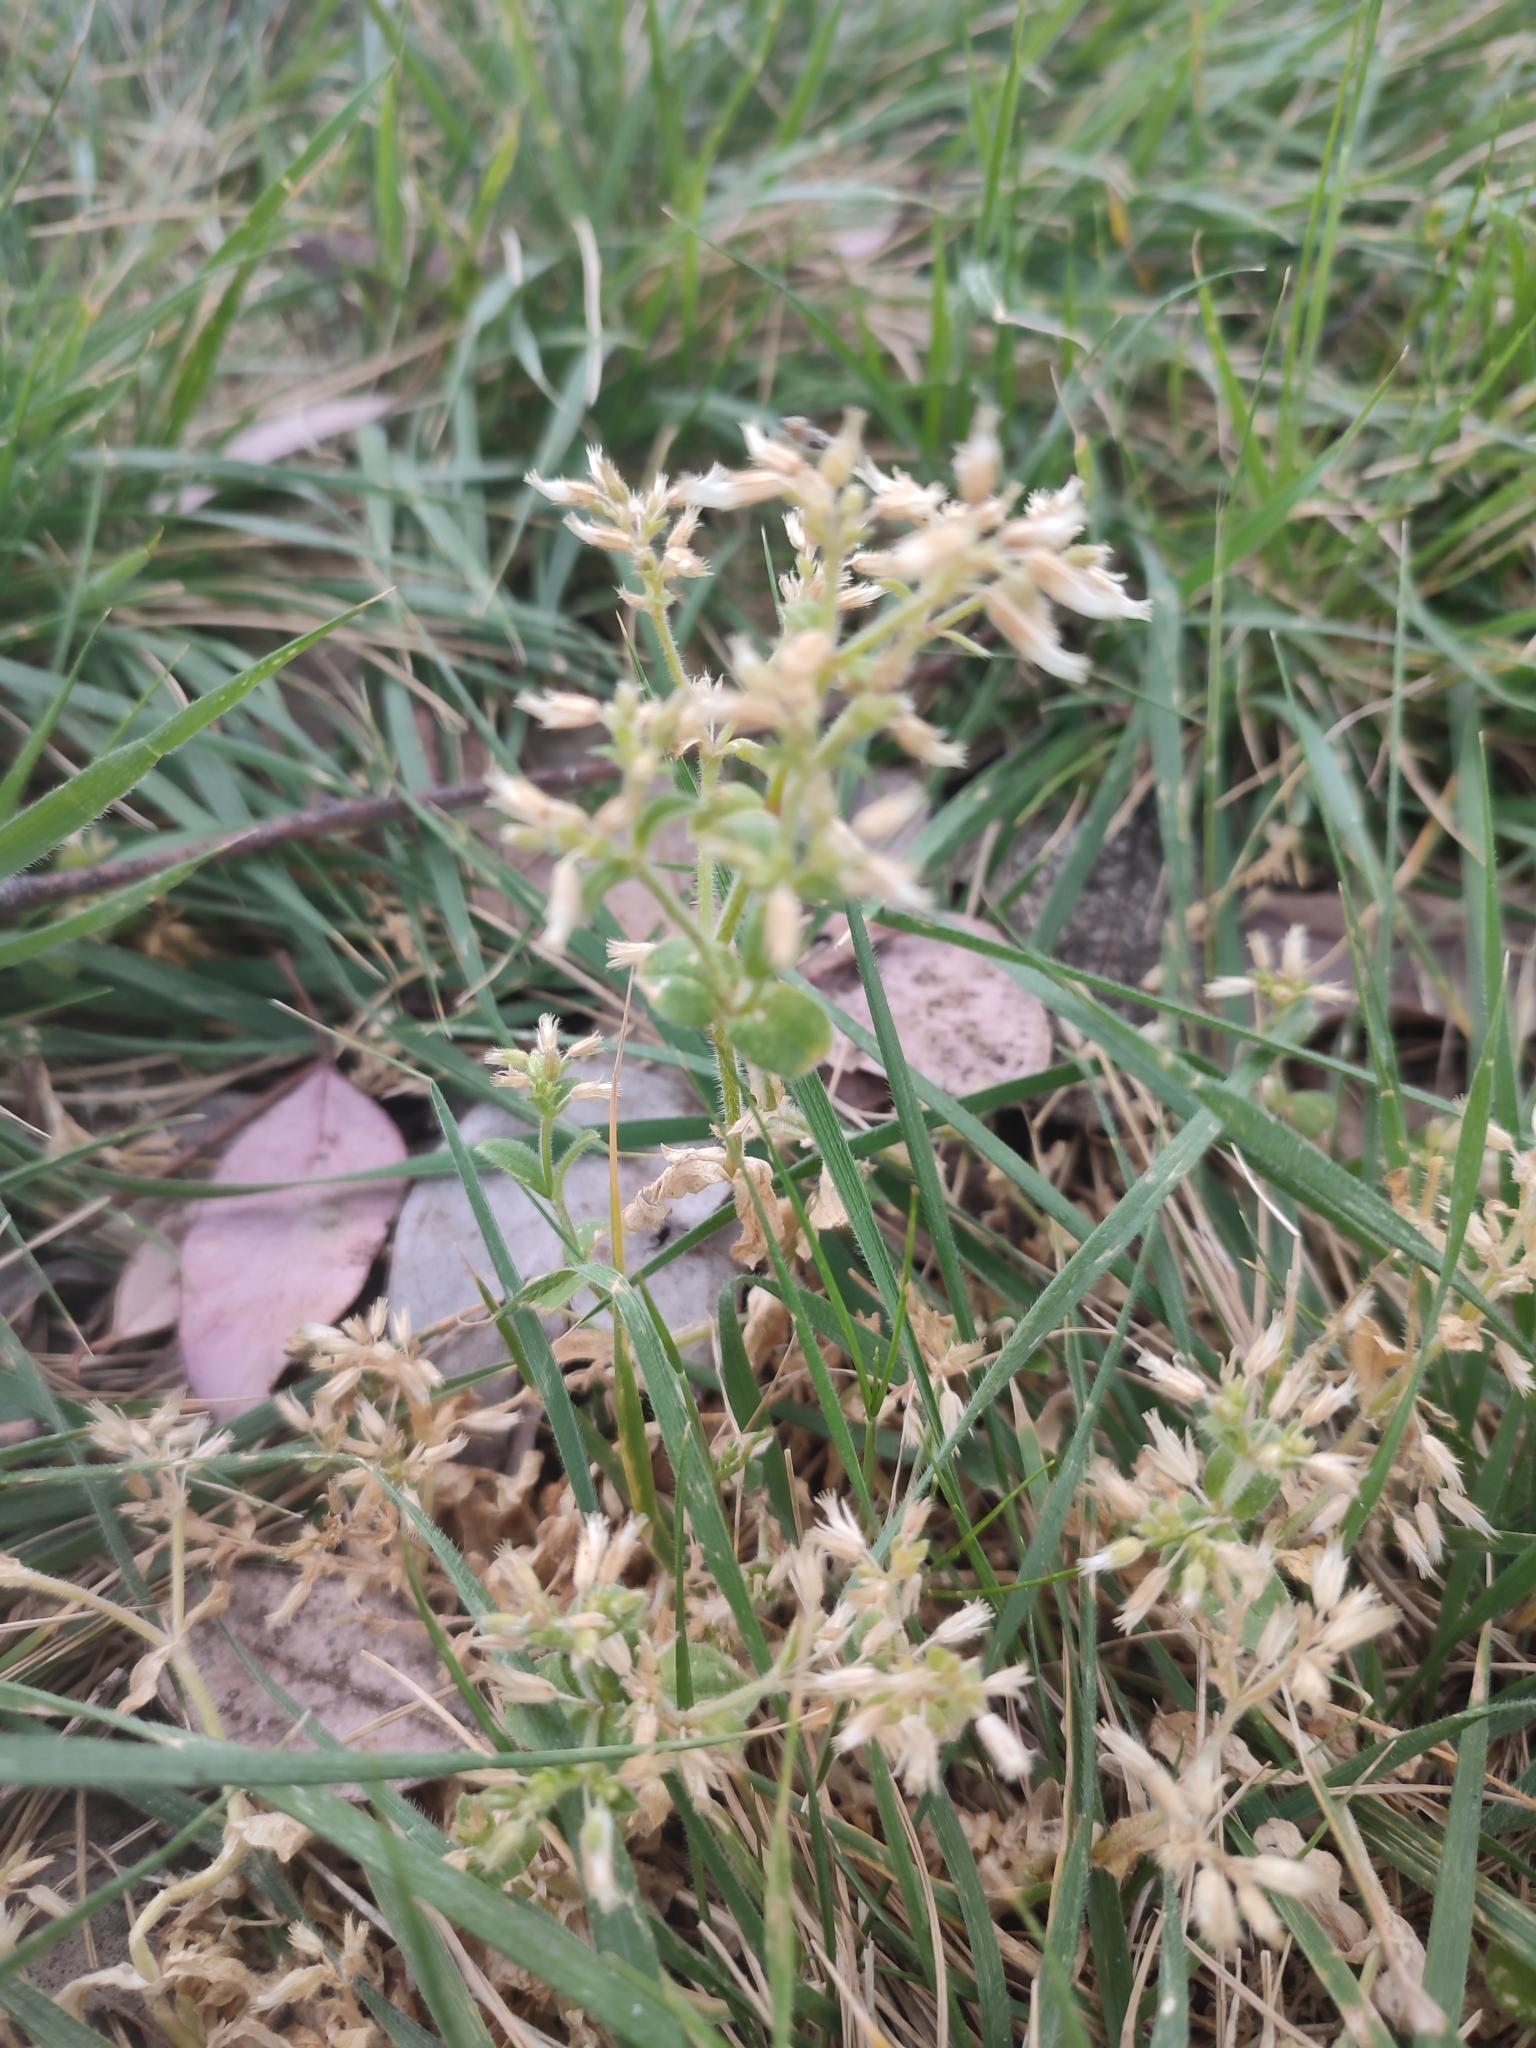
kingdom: Plantae
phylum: Tracheophyta
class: Magnoliopsida
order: Caryophyllales
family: Caryophyllaceae
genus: Cerastium
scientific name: Cerastium glomeratum
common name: Sticky chickweed
